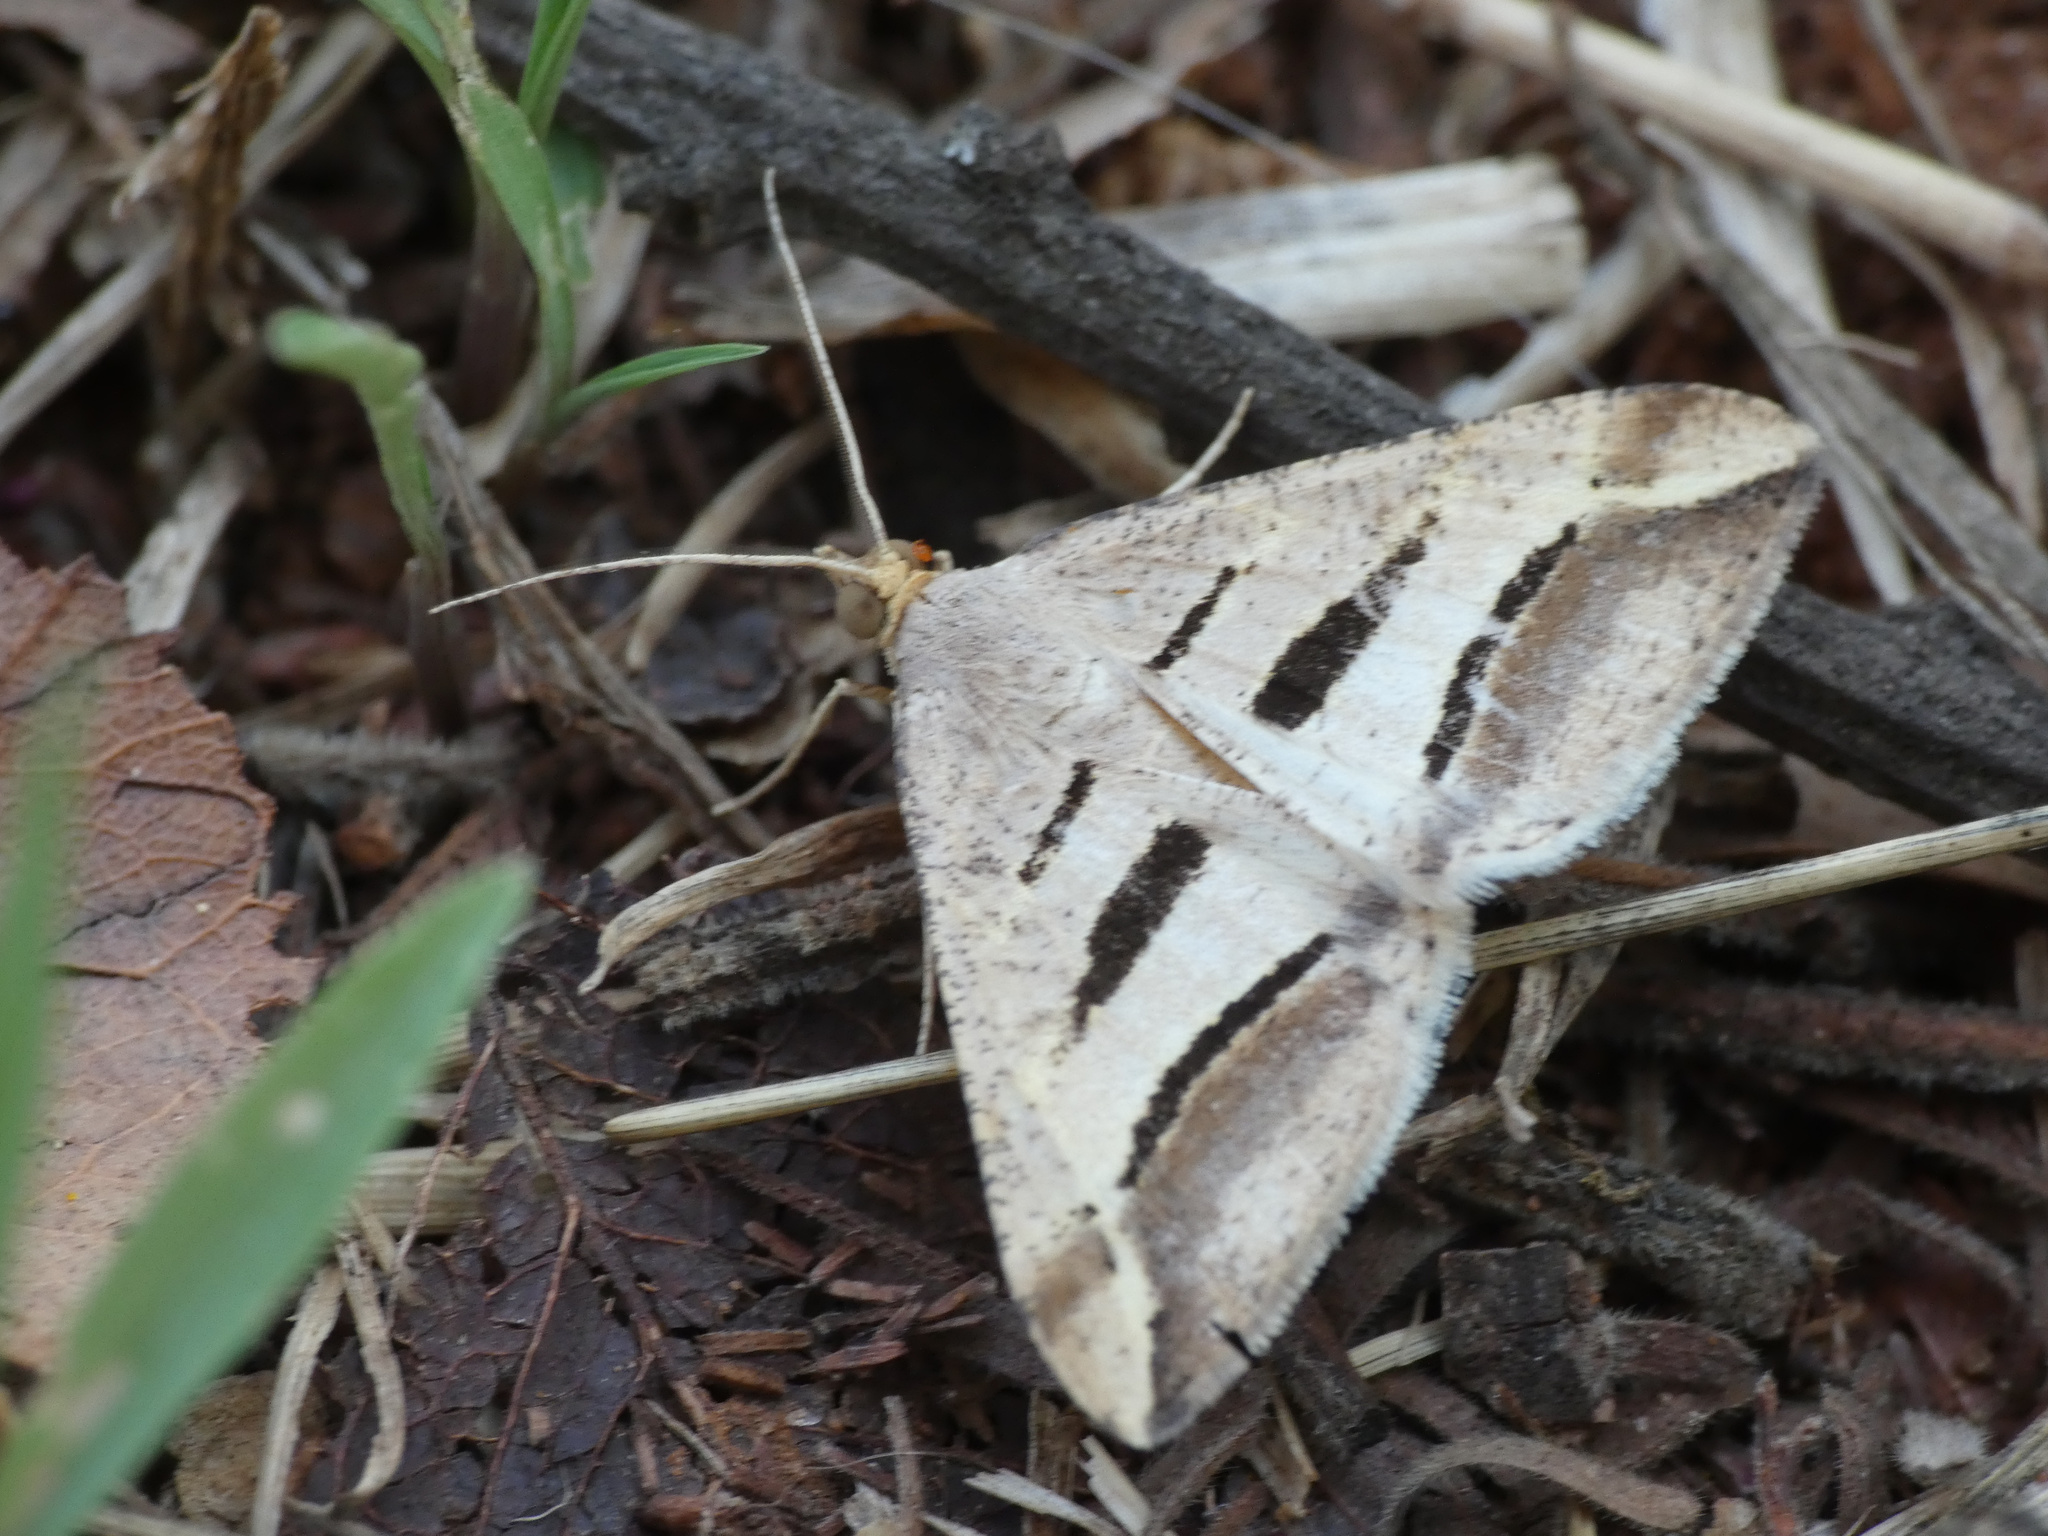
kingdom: Animalia
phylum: Arthropoda
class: Insecta
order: Lepidoptera
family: Geometridae
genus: Chiasmia
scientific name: Chiasmia subcurvaria
